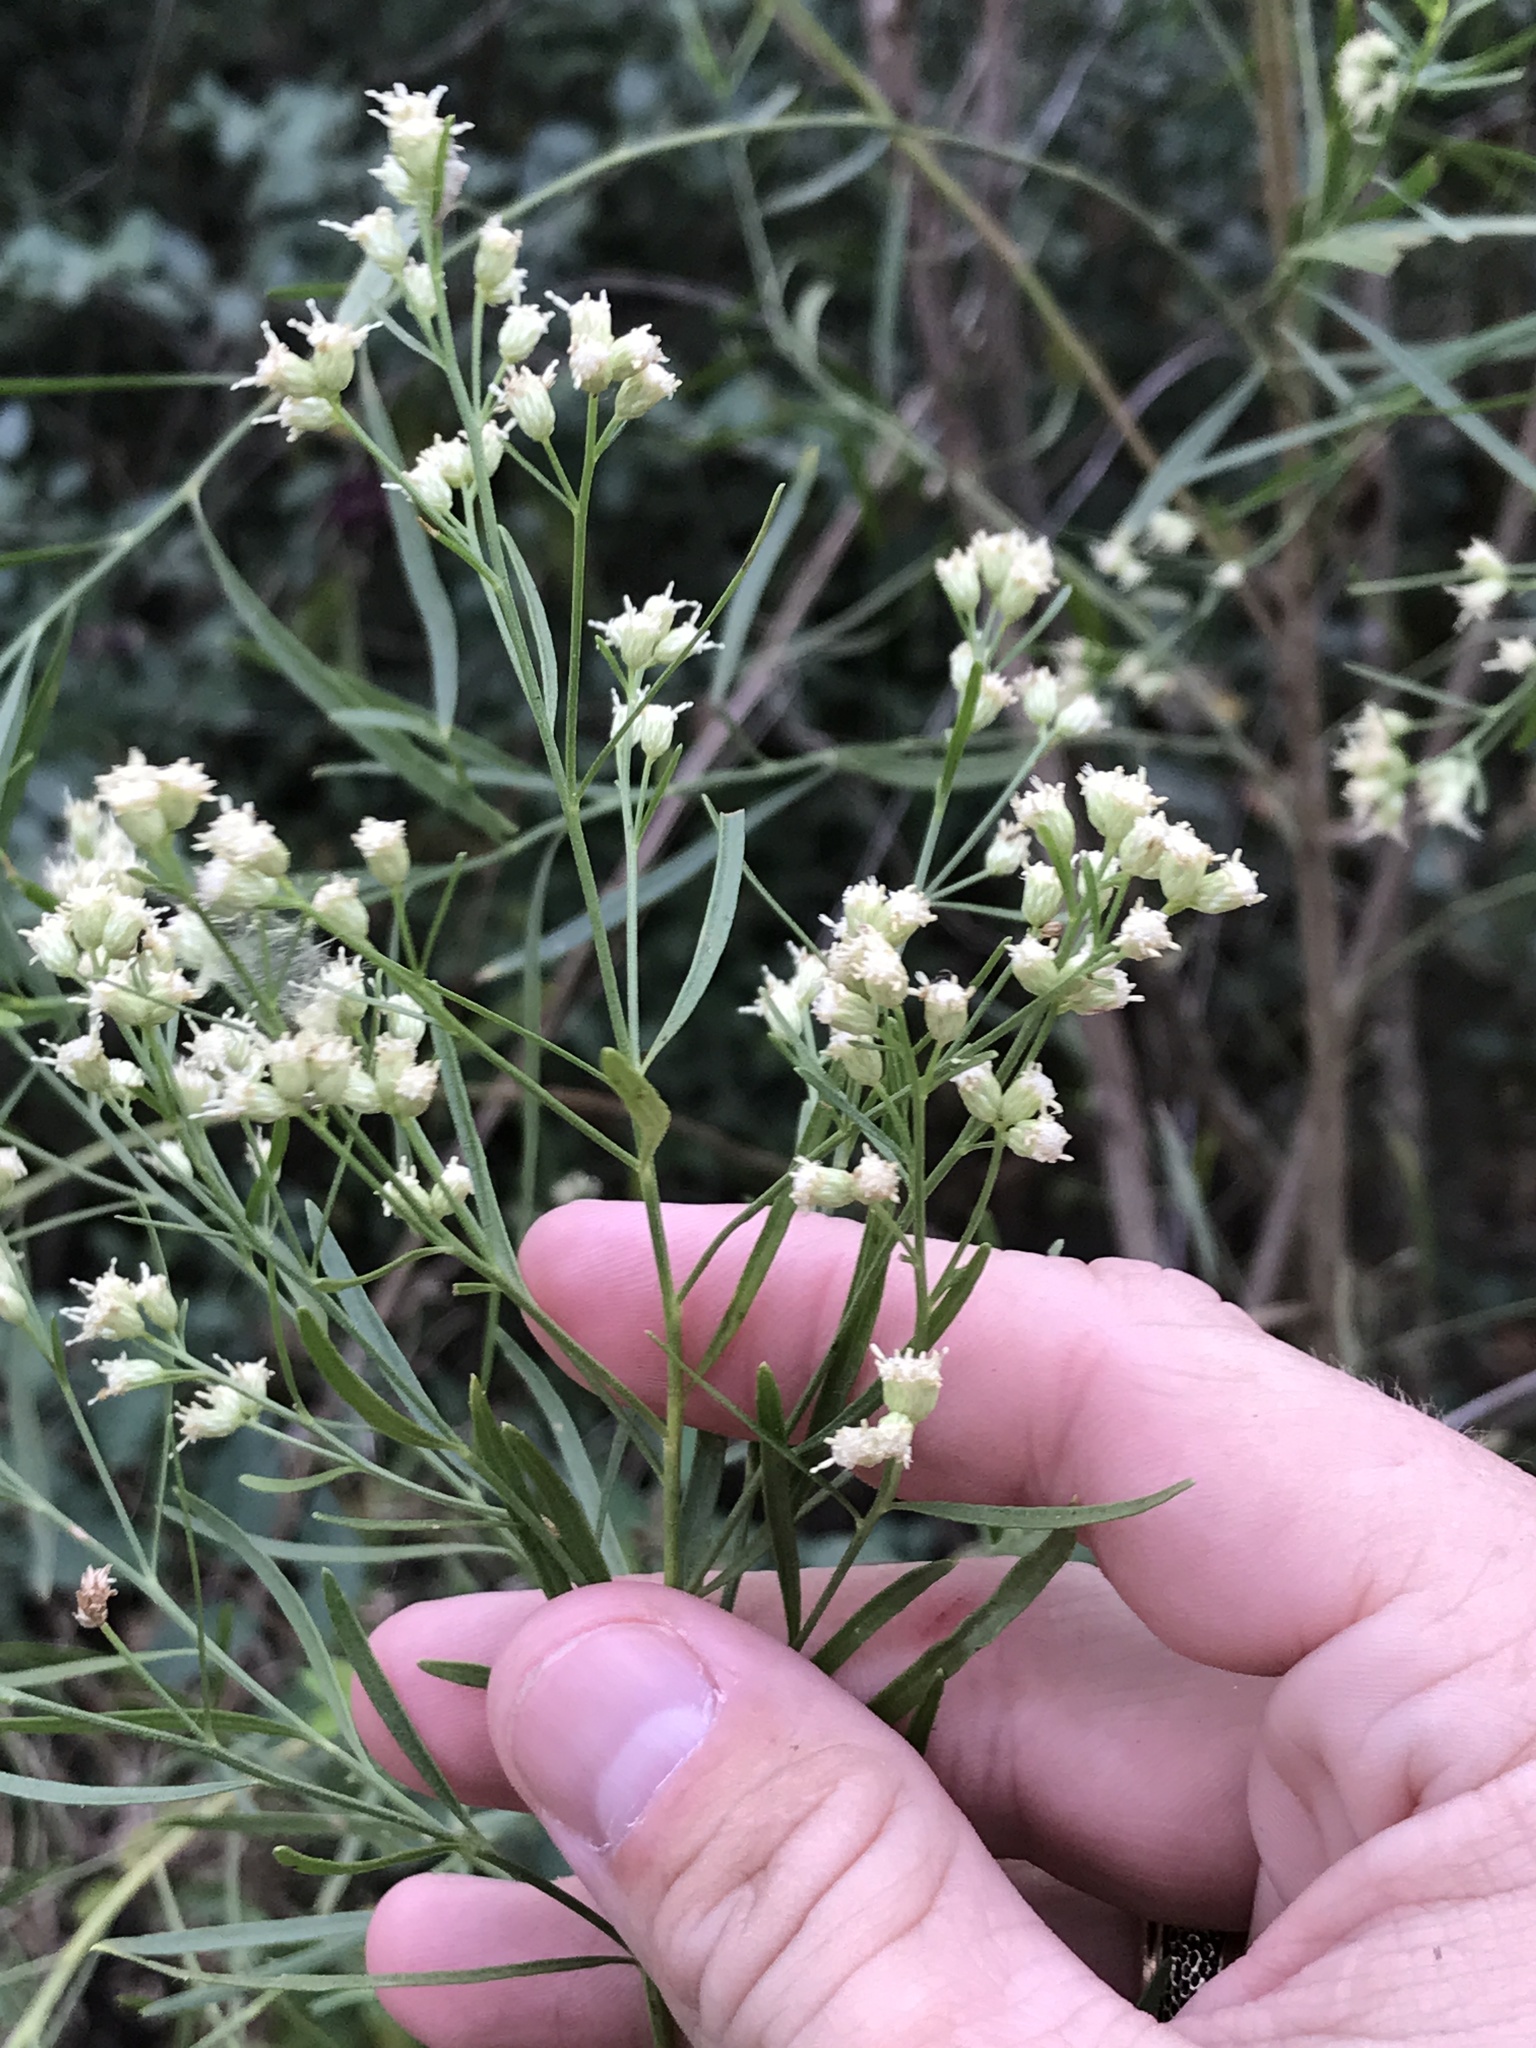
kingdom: Plantae
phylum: Tracheophyta
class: Magnoliopsida
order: Asterales
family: Asteraceae
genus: Baccharis
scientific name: Baccharis neglecta
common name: Roosevelt-weed
